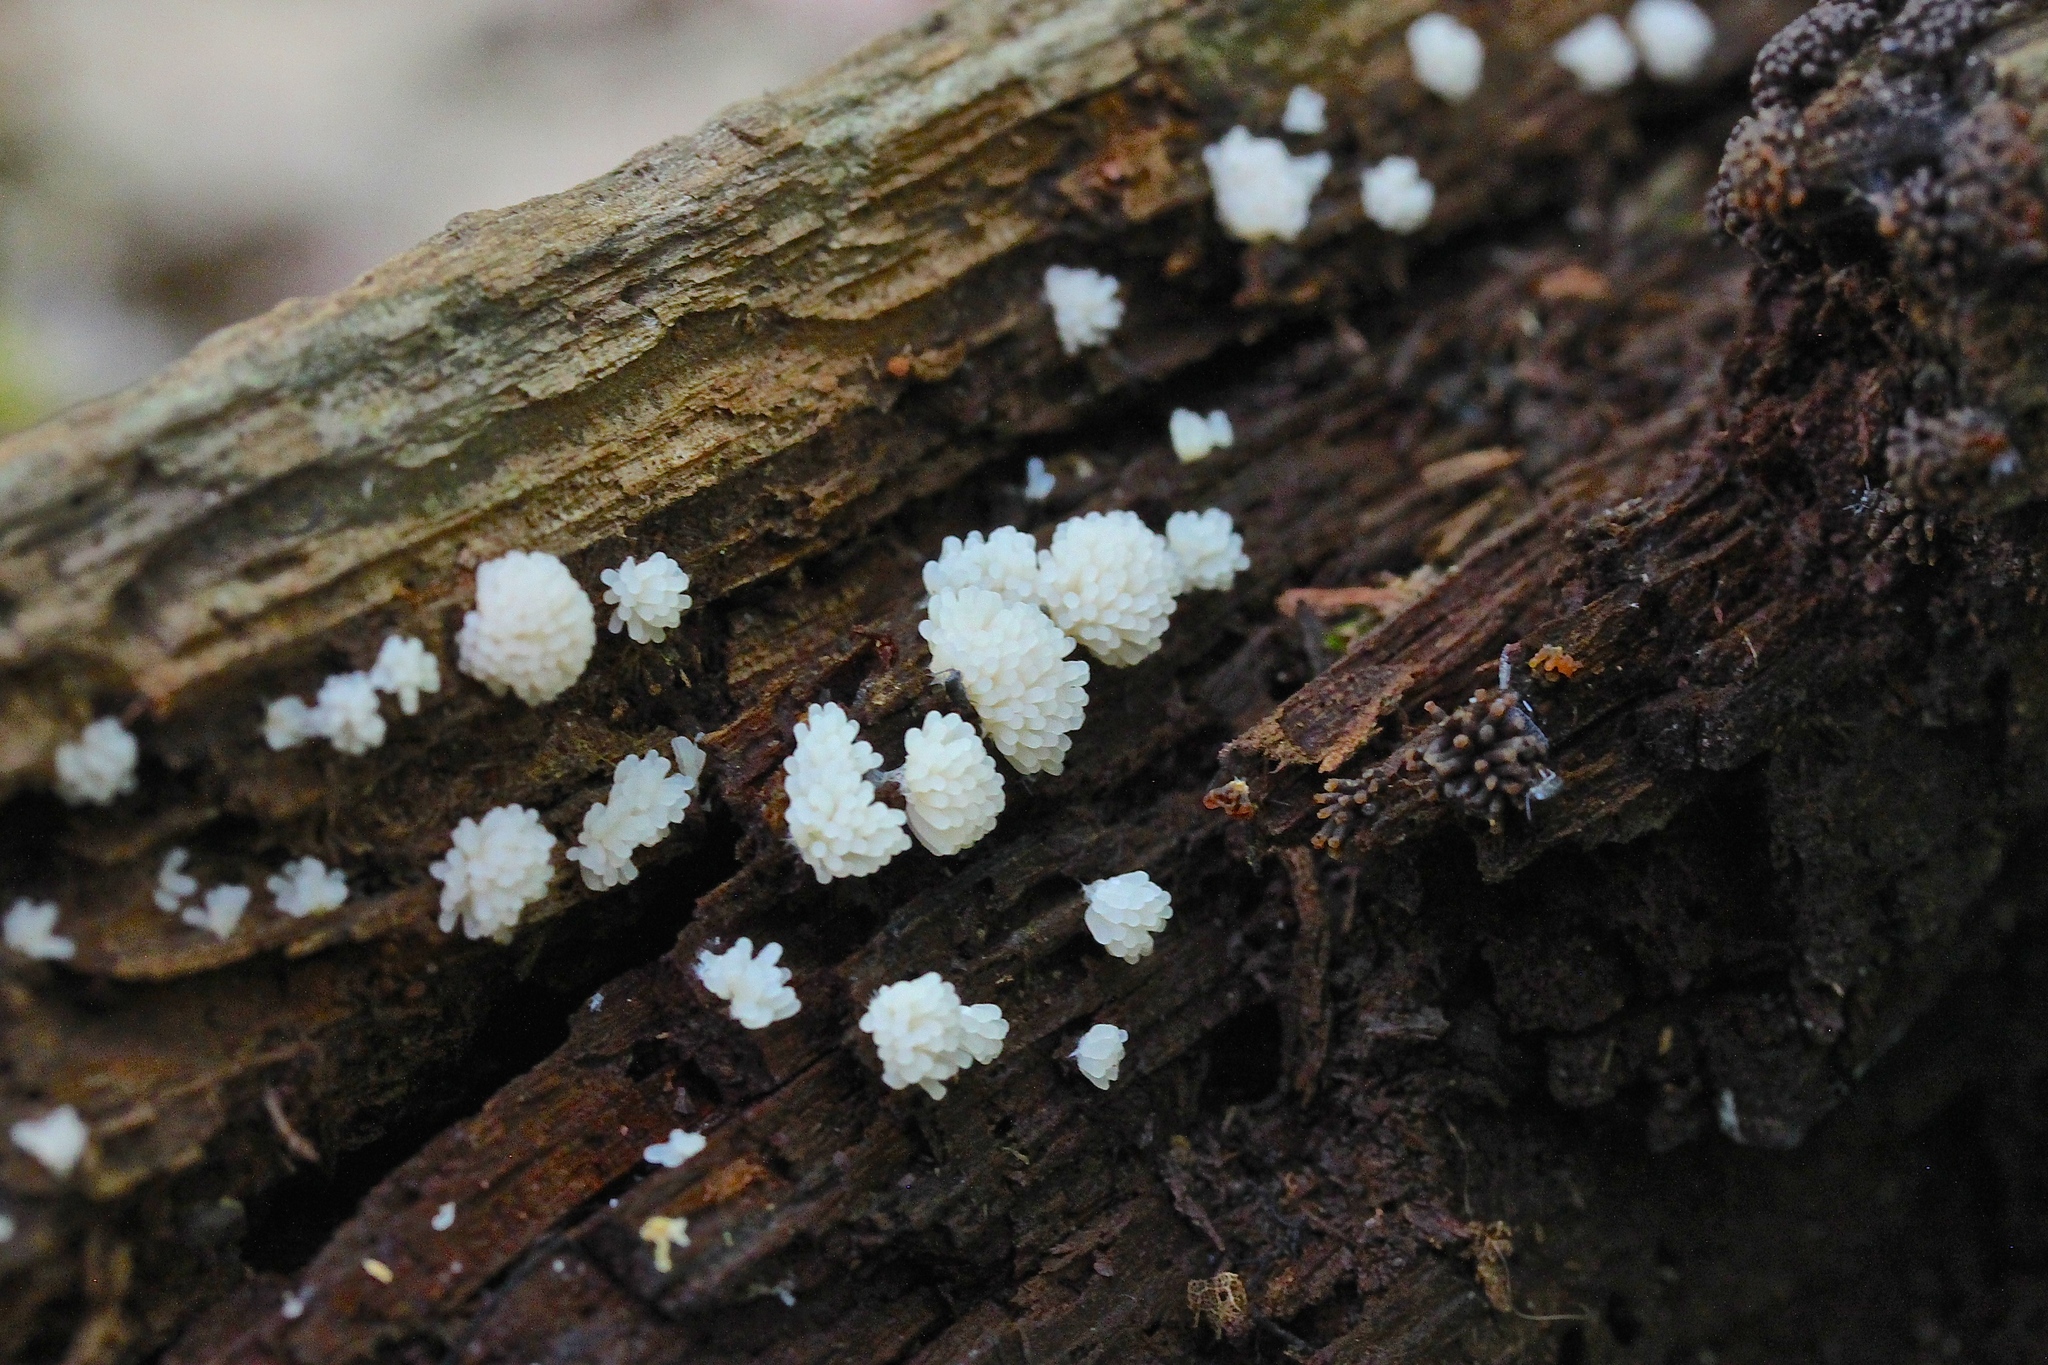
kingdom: Protozoa
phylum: Mycetozoa
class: Myxomycetes
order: Trichiales
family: Arcyriaceae
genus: Arcyria
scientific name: Arcyria cinerea
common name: White carnival candy slime mold
